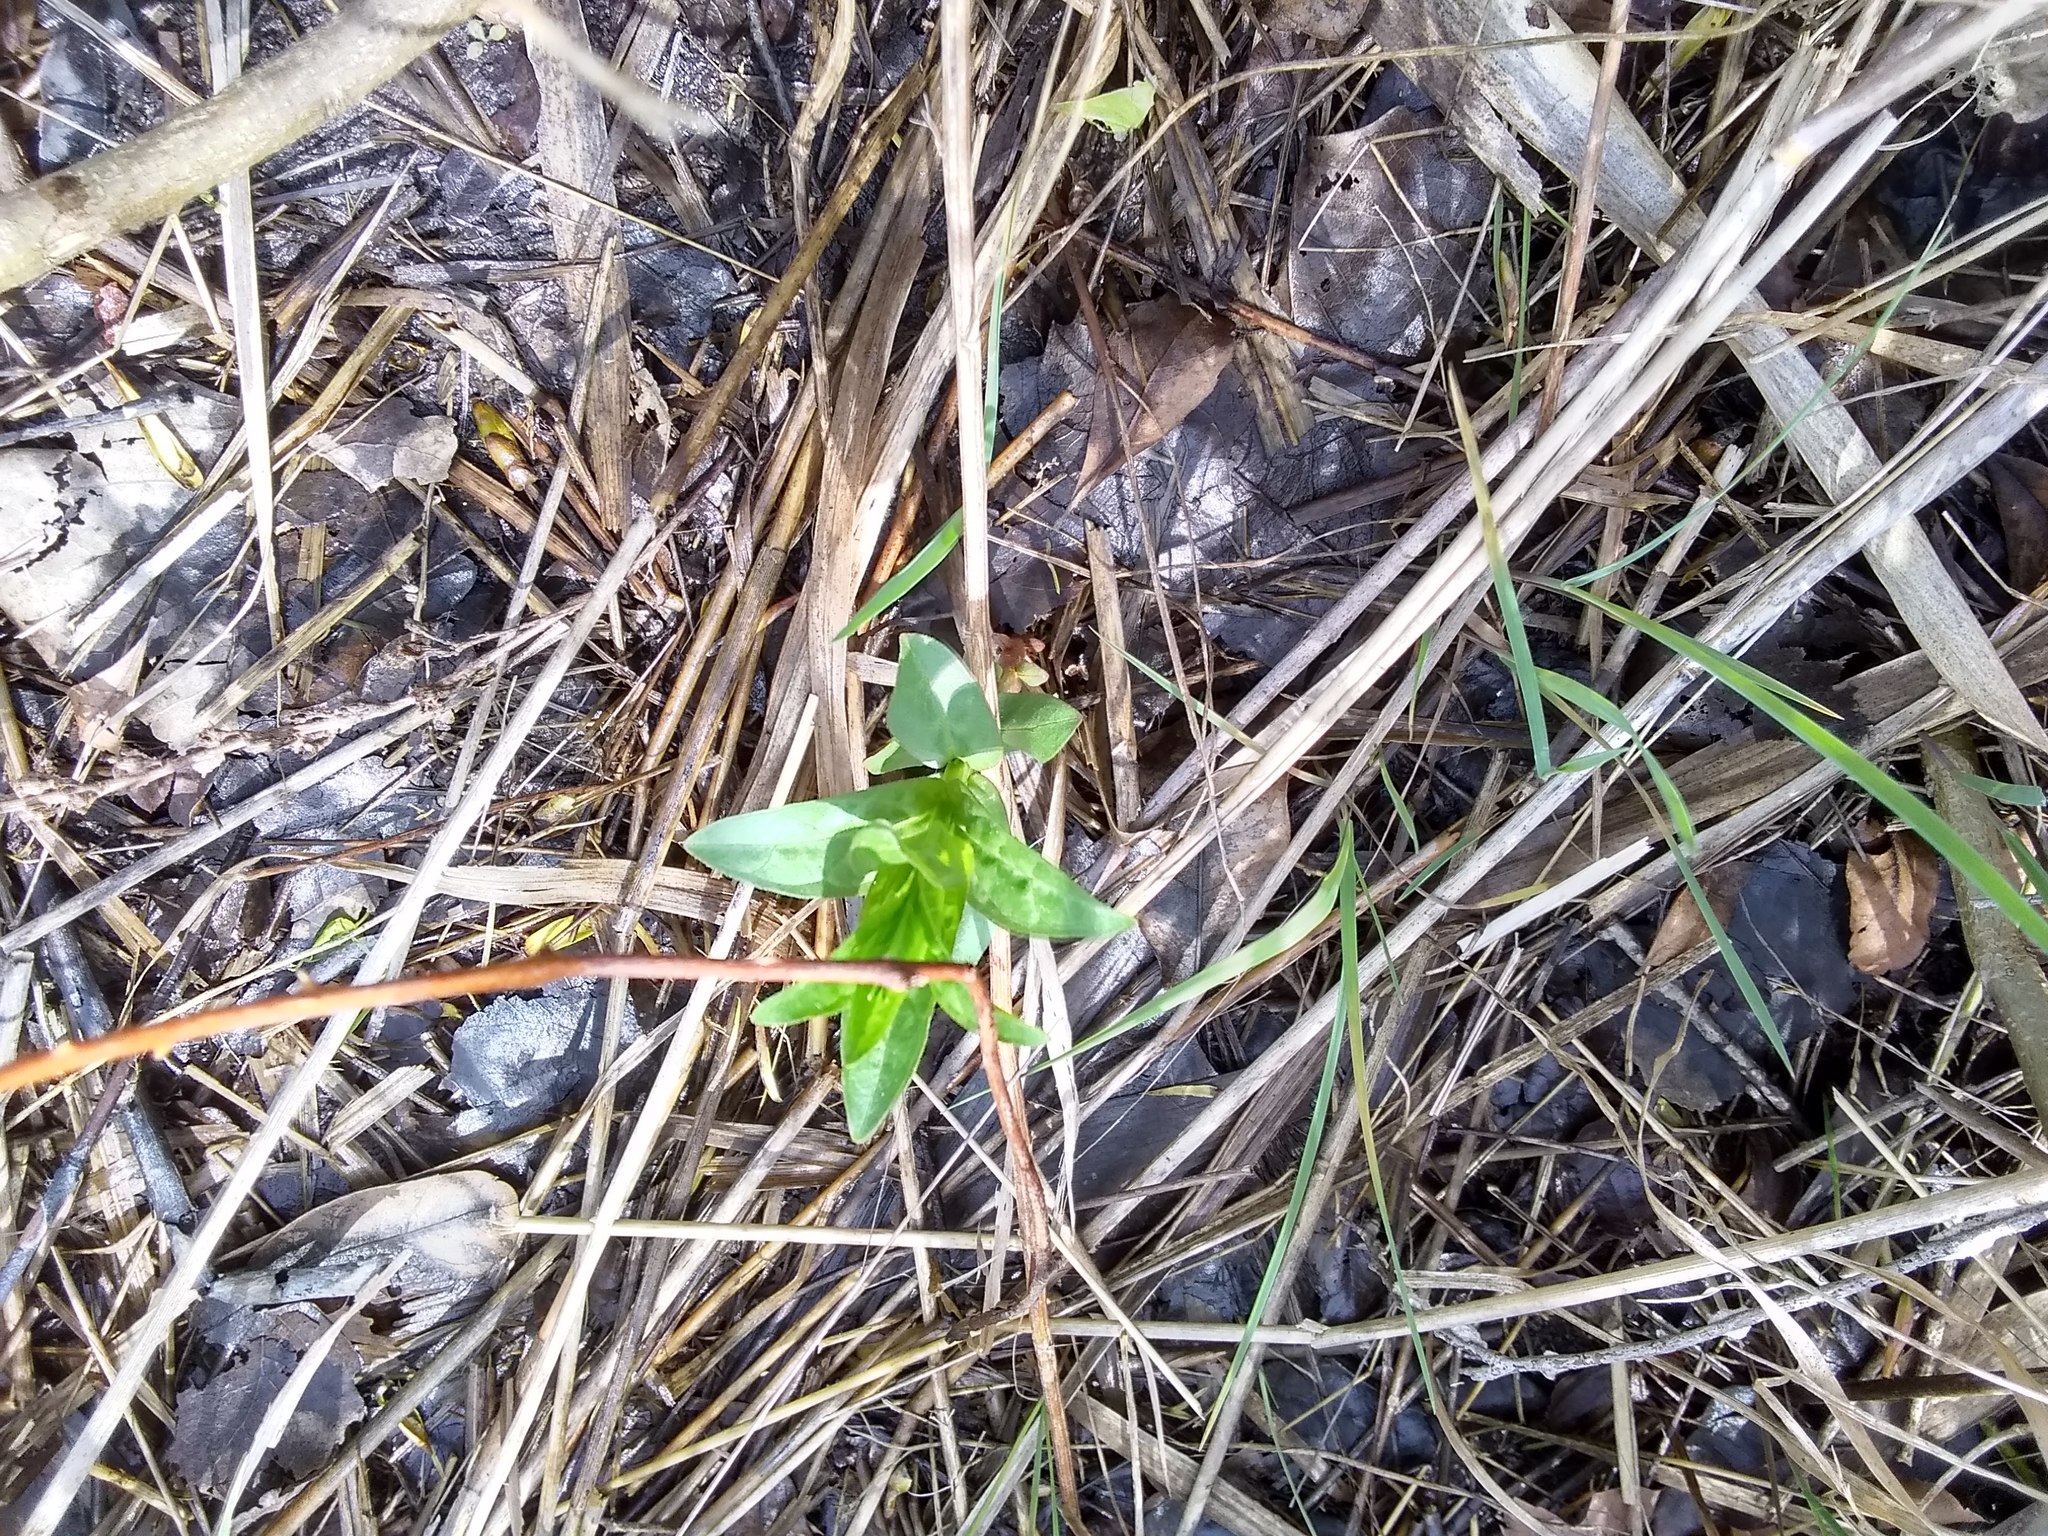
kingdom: Plantae
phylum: Tracheophyta
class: Magnoliopsida
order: Myrtales
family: Lythraceae
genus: Lythrum
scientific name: Lythrum salicaria
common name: Purple loosestrife
